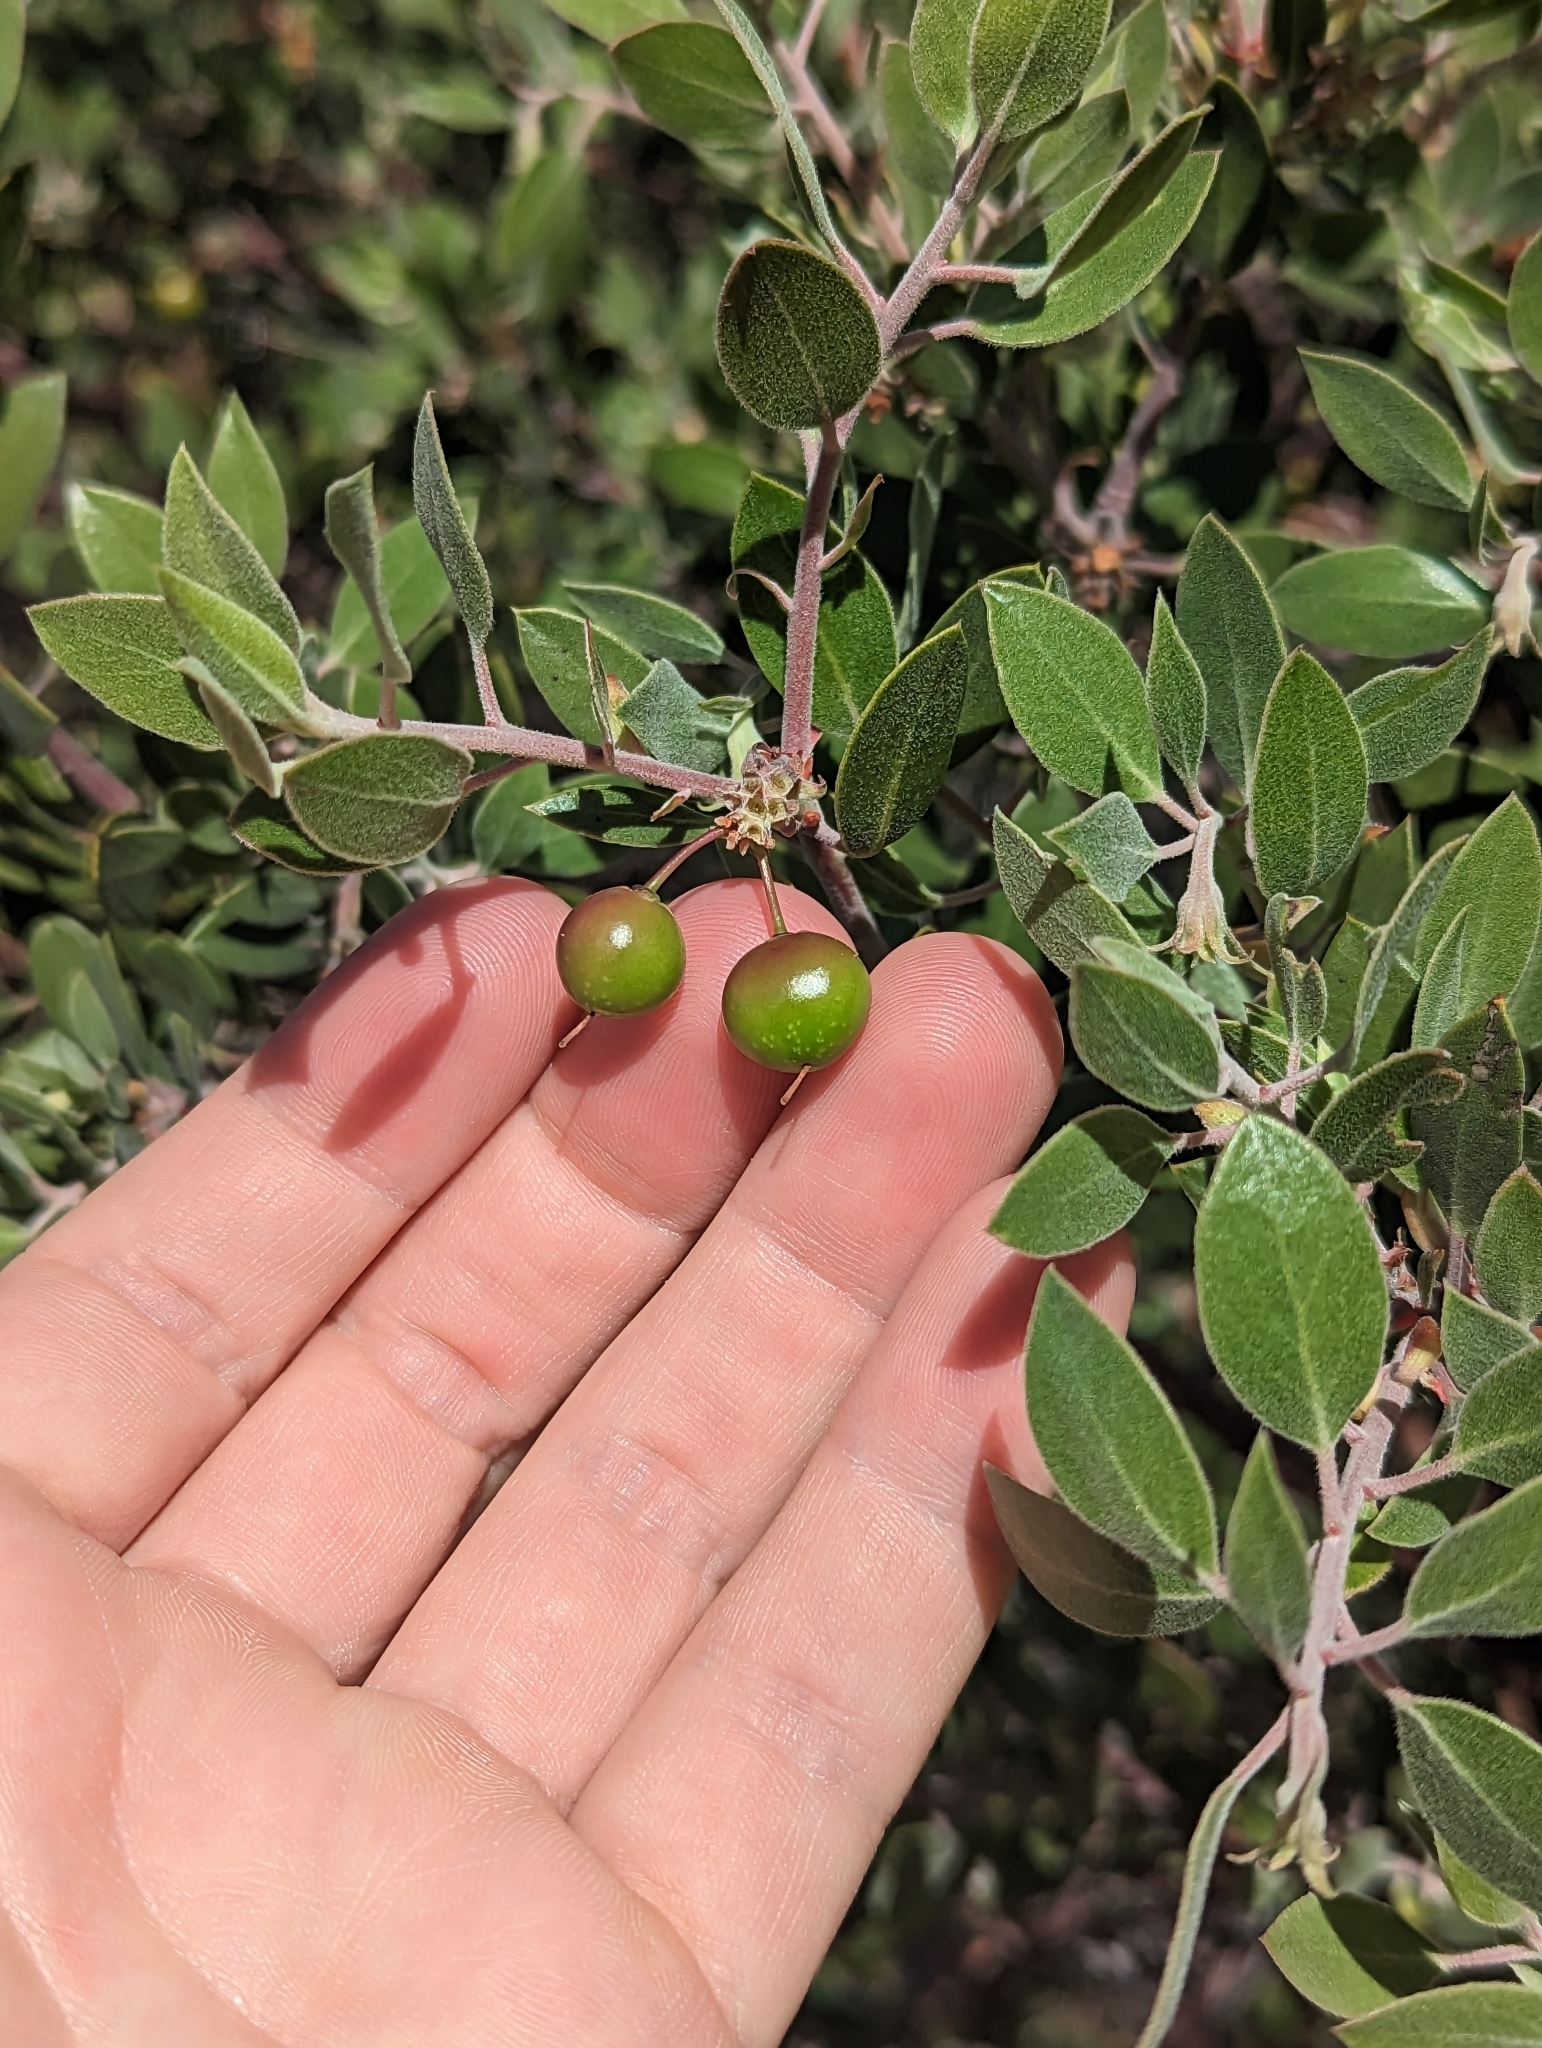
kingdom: Plantae
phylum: Tracheophyta
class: Magnoliopsida
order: Ericales
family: Ericaceae
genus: Arctostaphylos
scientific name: Arctostaphylos pungens
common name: Mexican manzanita
